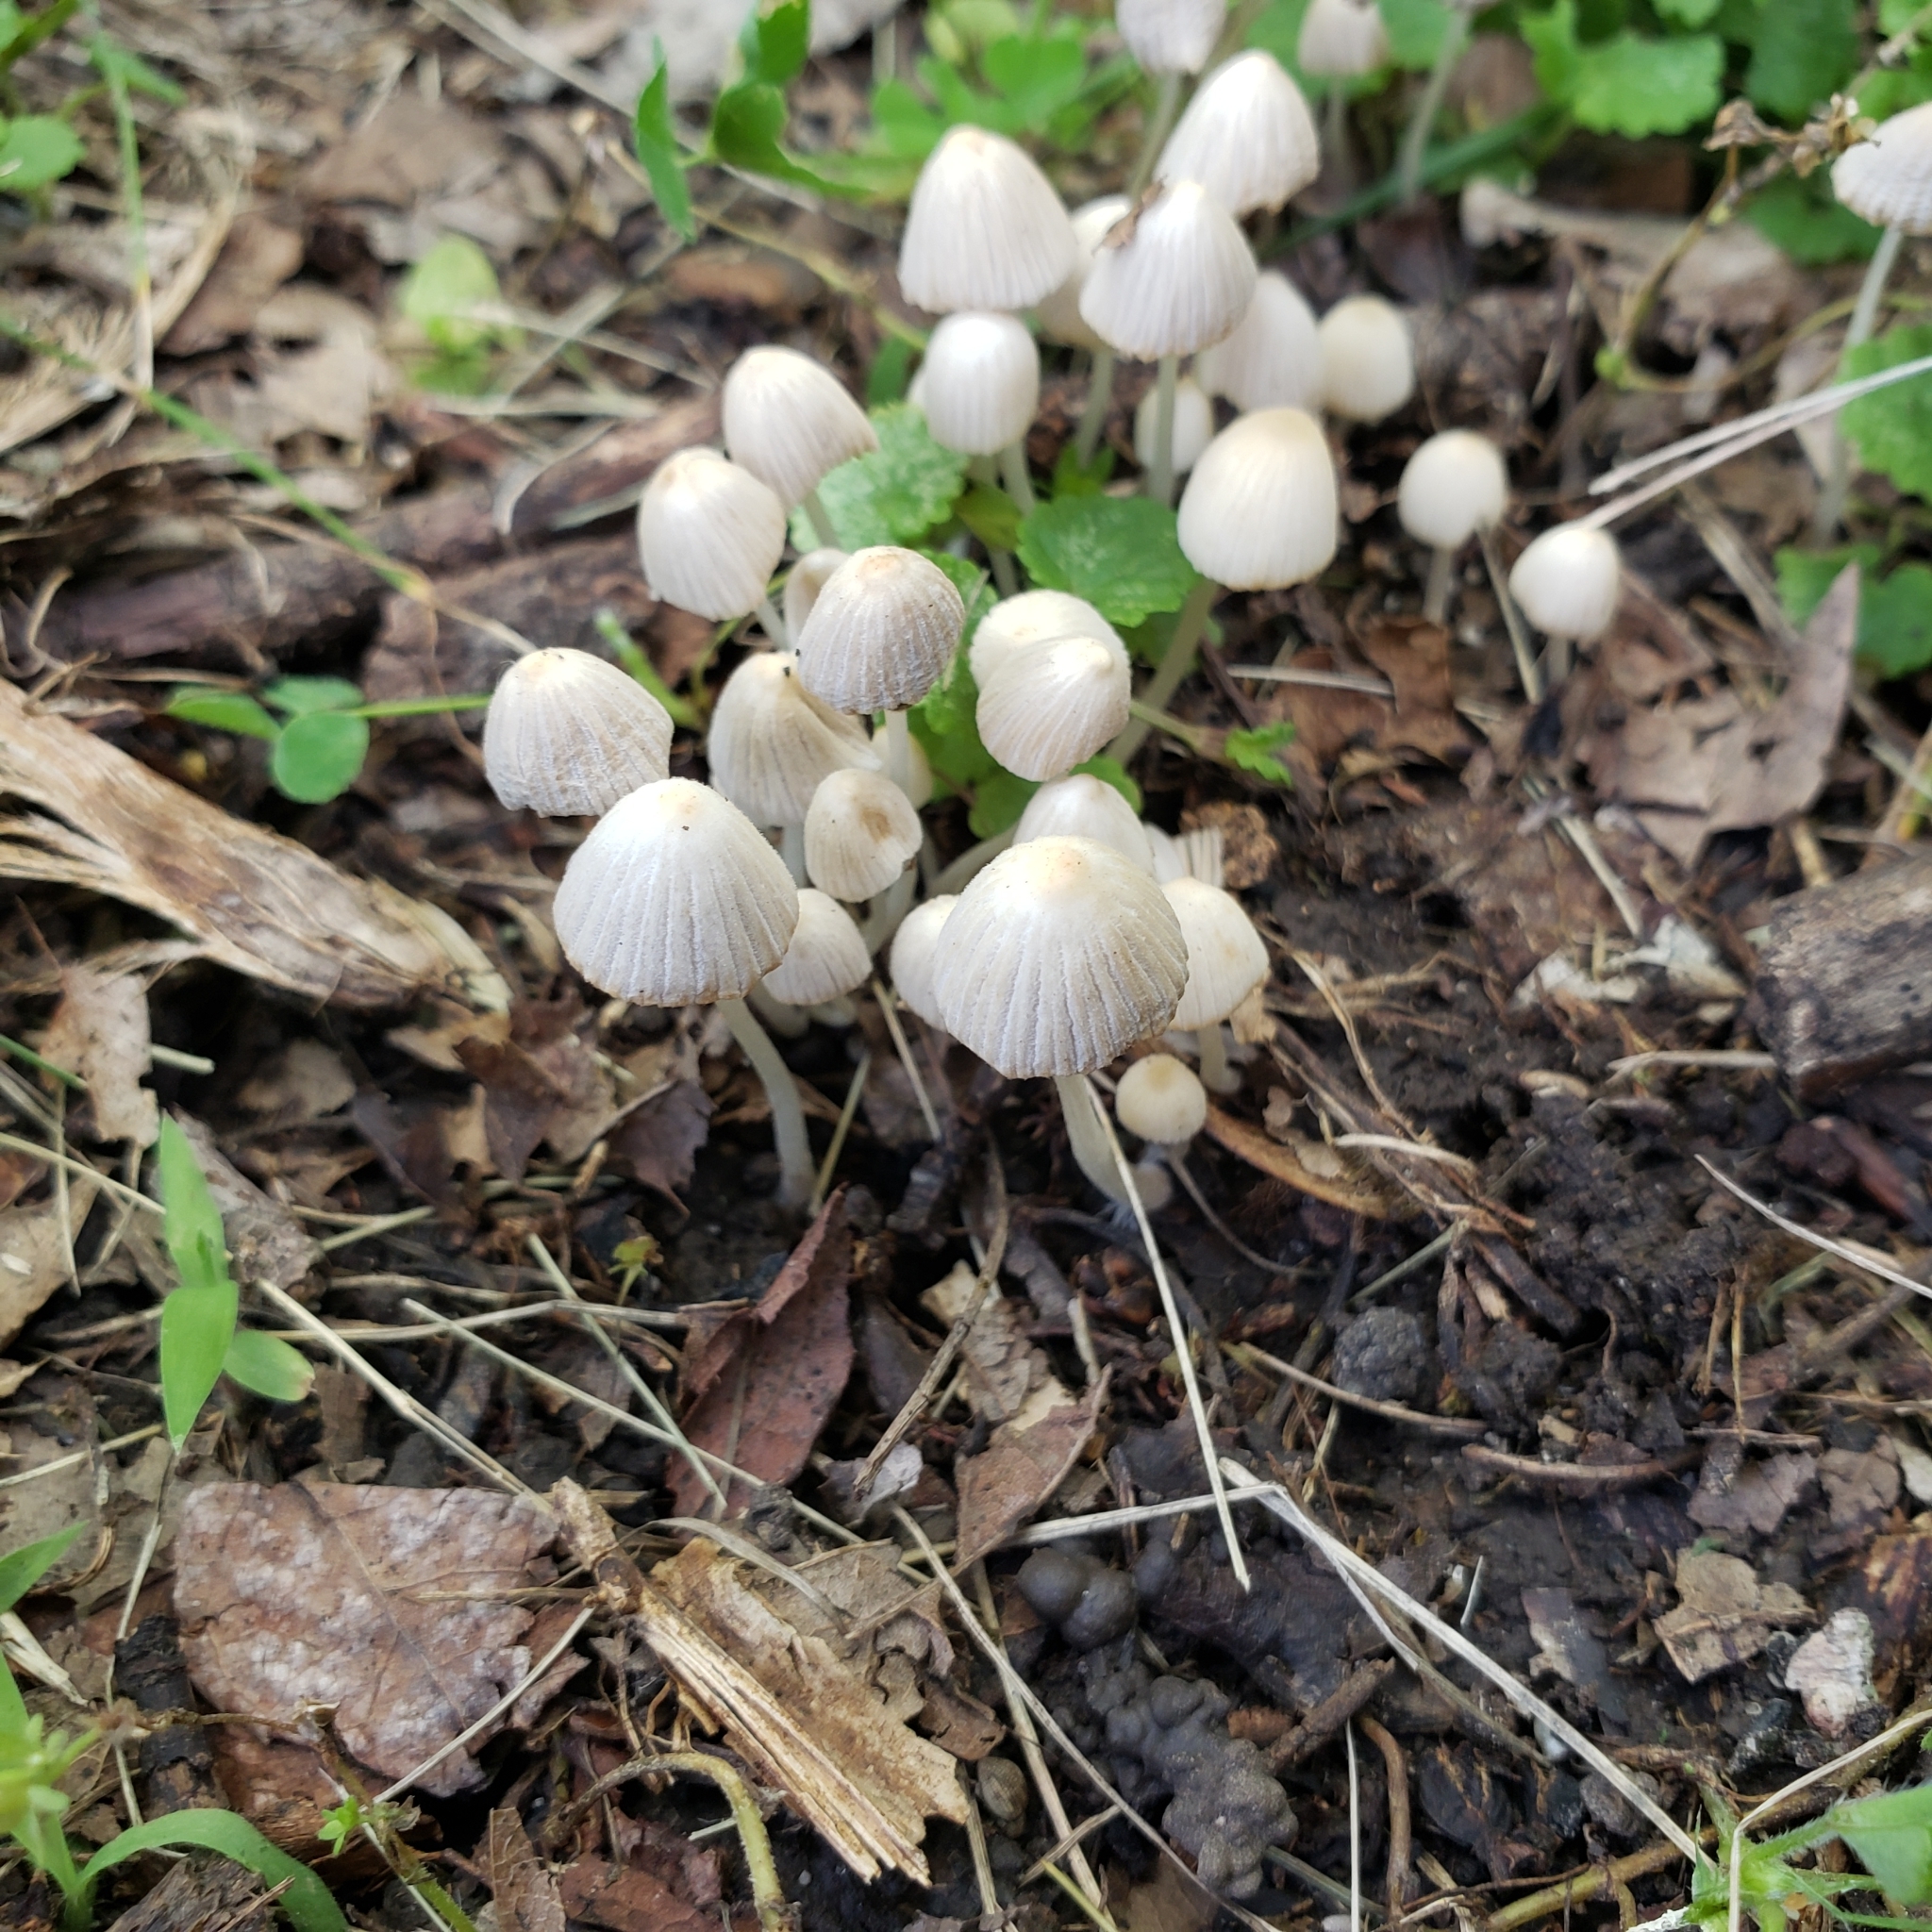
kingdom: Fungi
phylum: Basidiomycota
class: Agaricomycetes
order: Agaricales
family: Psathyrellaceae
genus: Coprinellus
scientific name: Coprinellus disseminatus
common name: Fairies' bonnets
